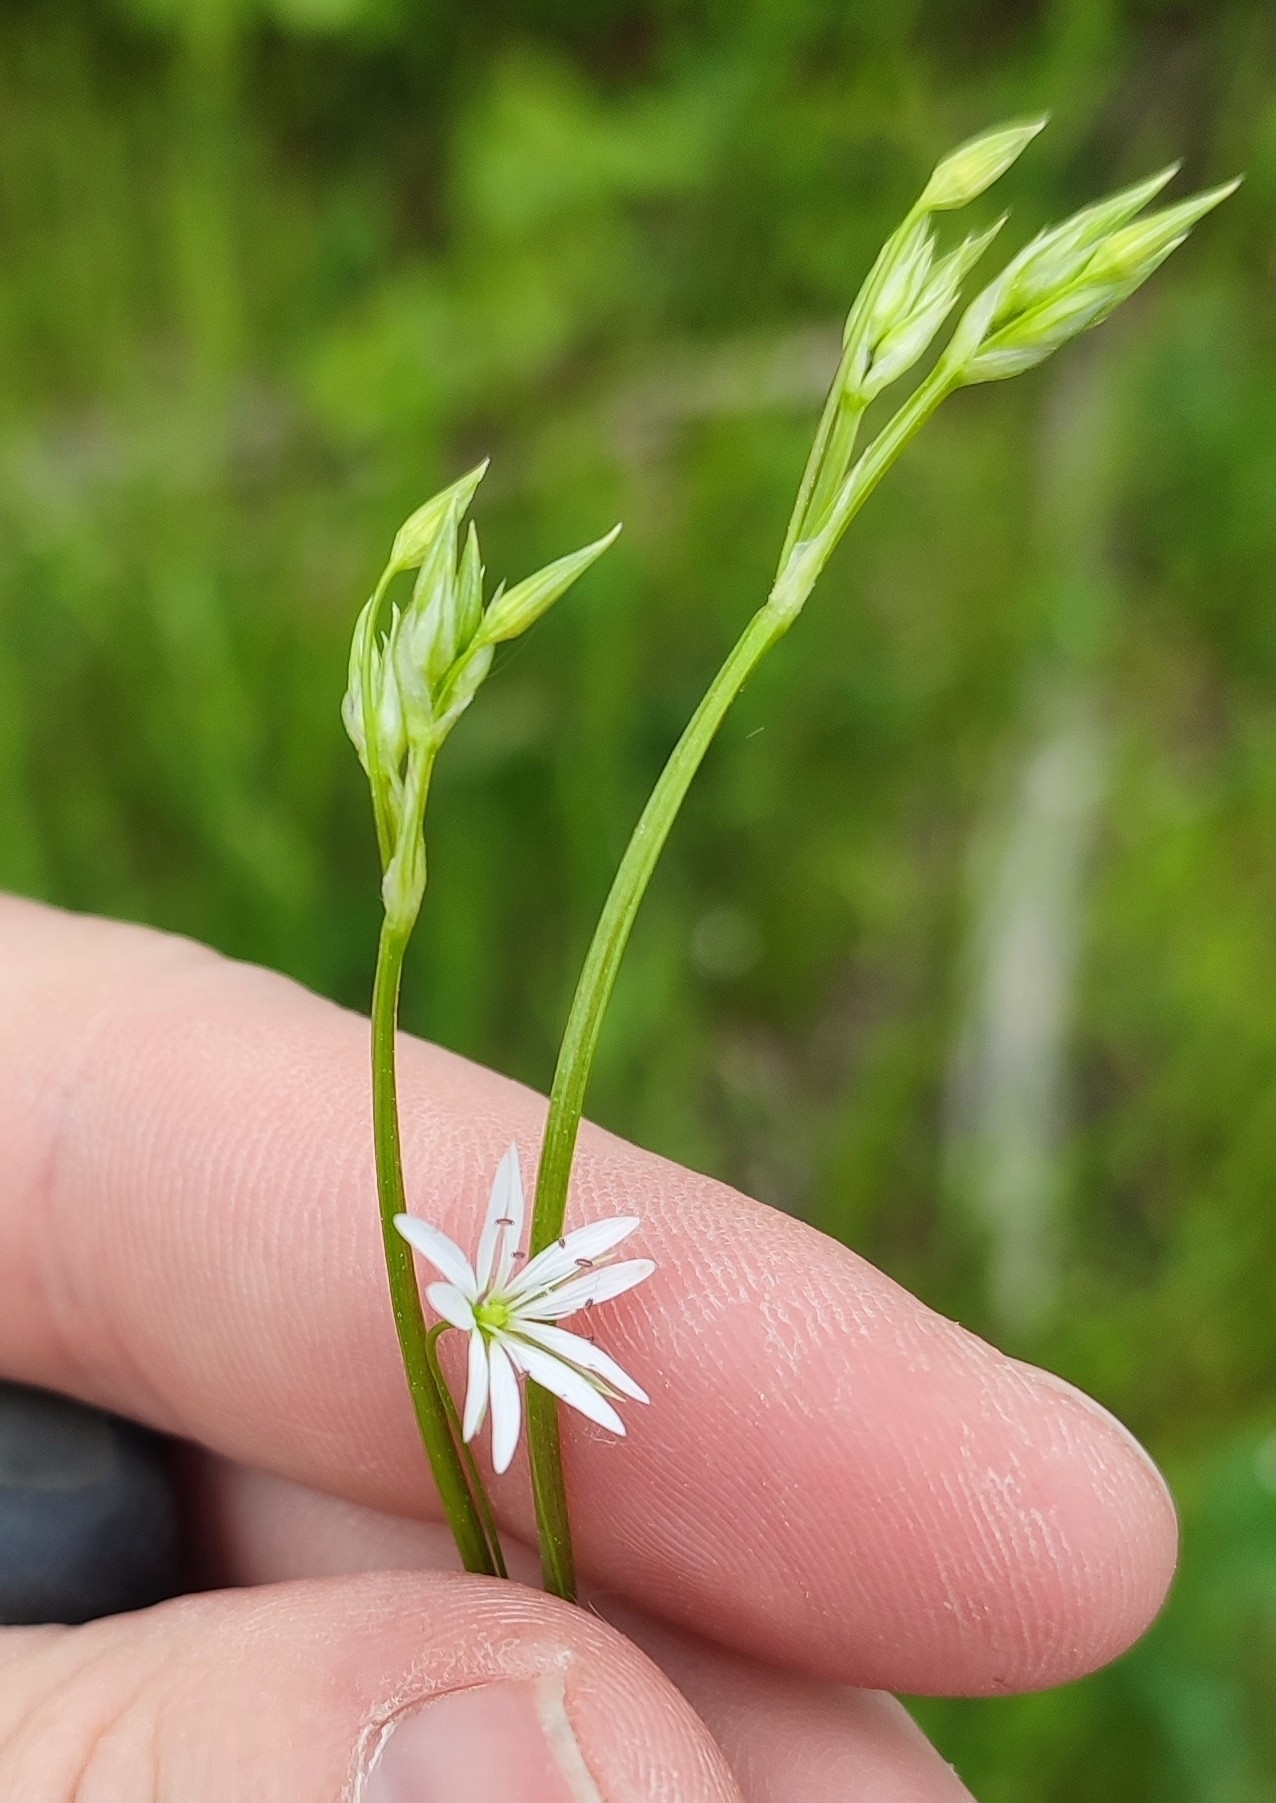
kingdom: Plantae
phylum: Tracheophyta
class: Magnoliopsida
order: Caryophyllales
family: Caryophyllaceae
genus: Stellaria
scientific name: Stellaria graminea
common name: Grass-like starwort
